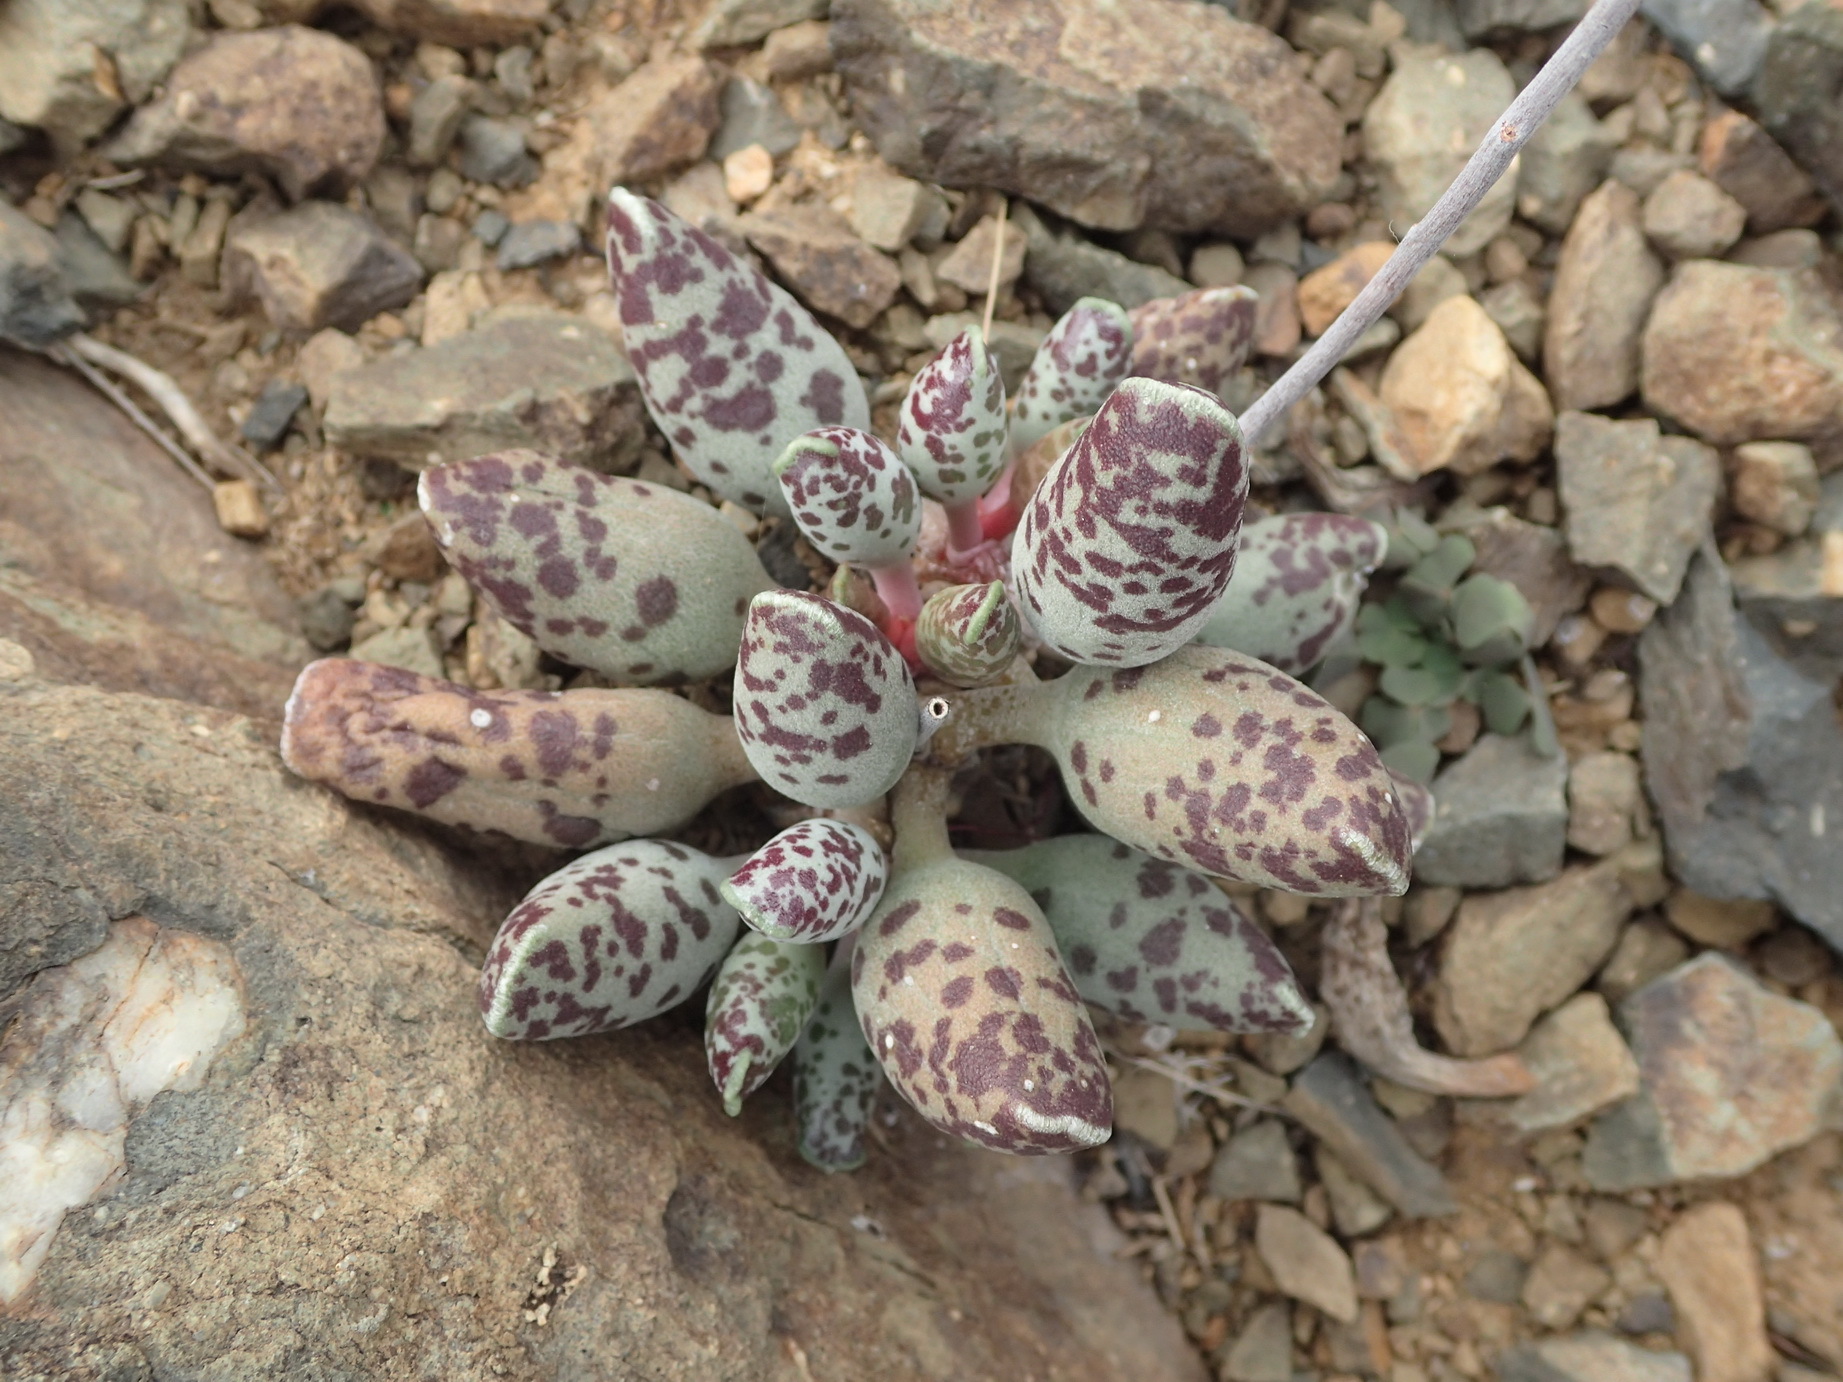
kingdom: Plantae
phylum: Tracheophyta
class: Magnoliopsida
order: Saxifragales
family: Crassulaceae
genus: Adromischus
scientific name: Adromischus cooperi
